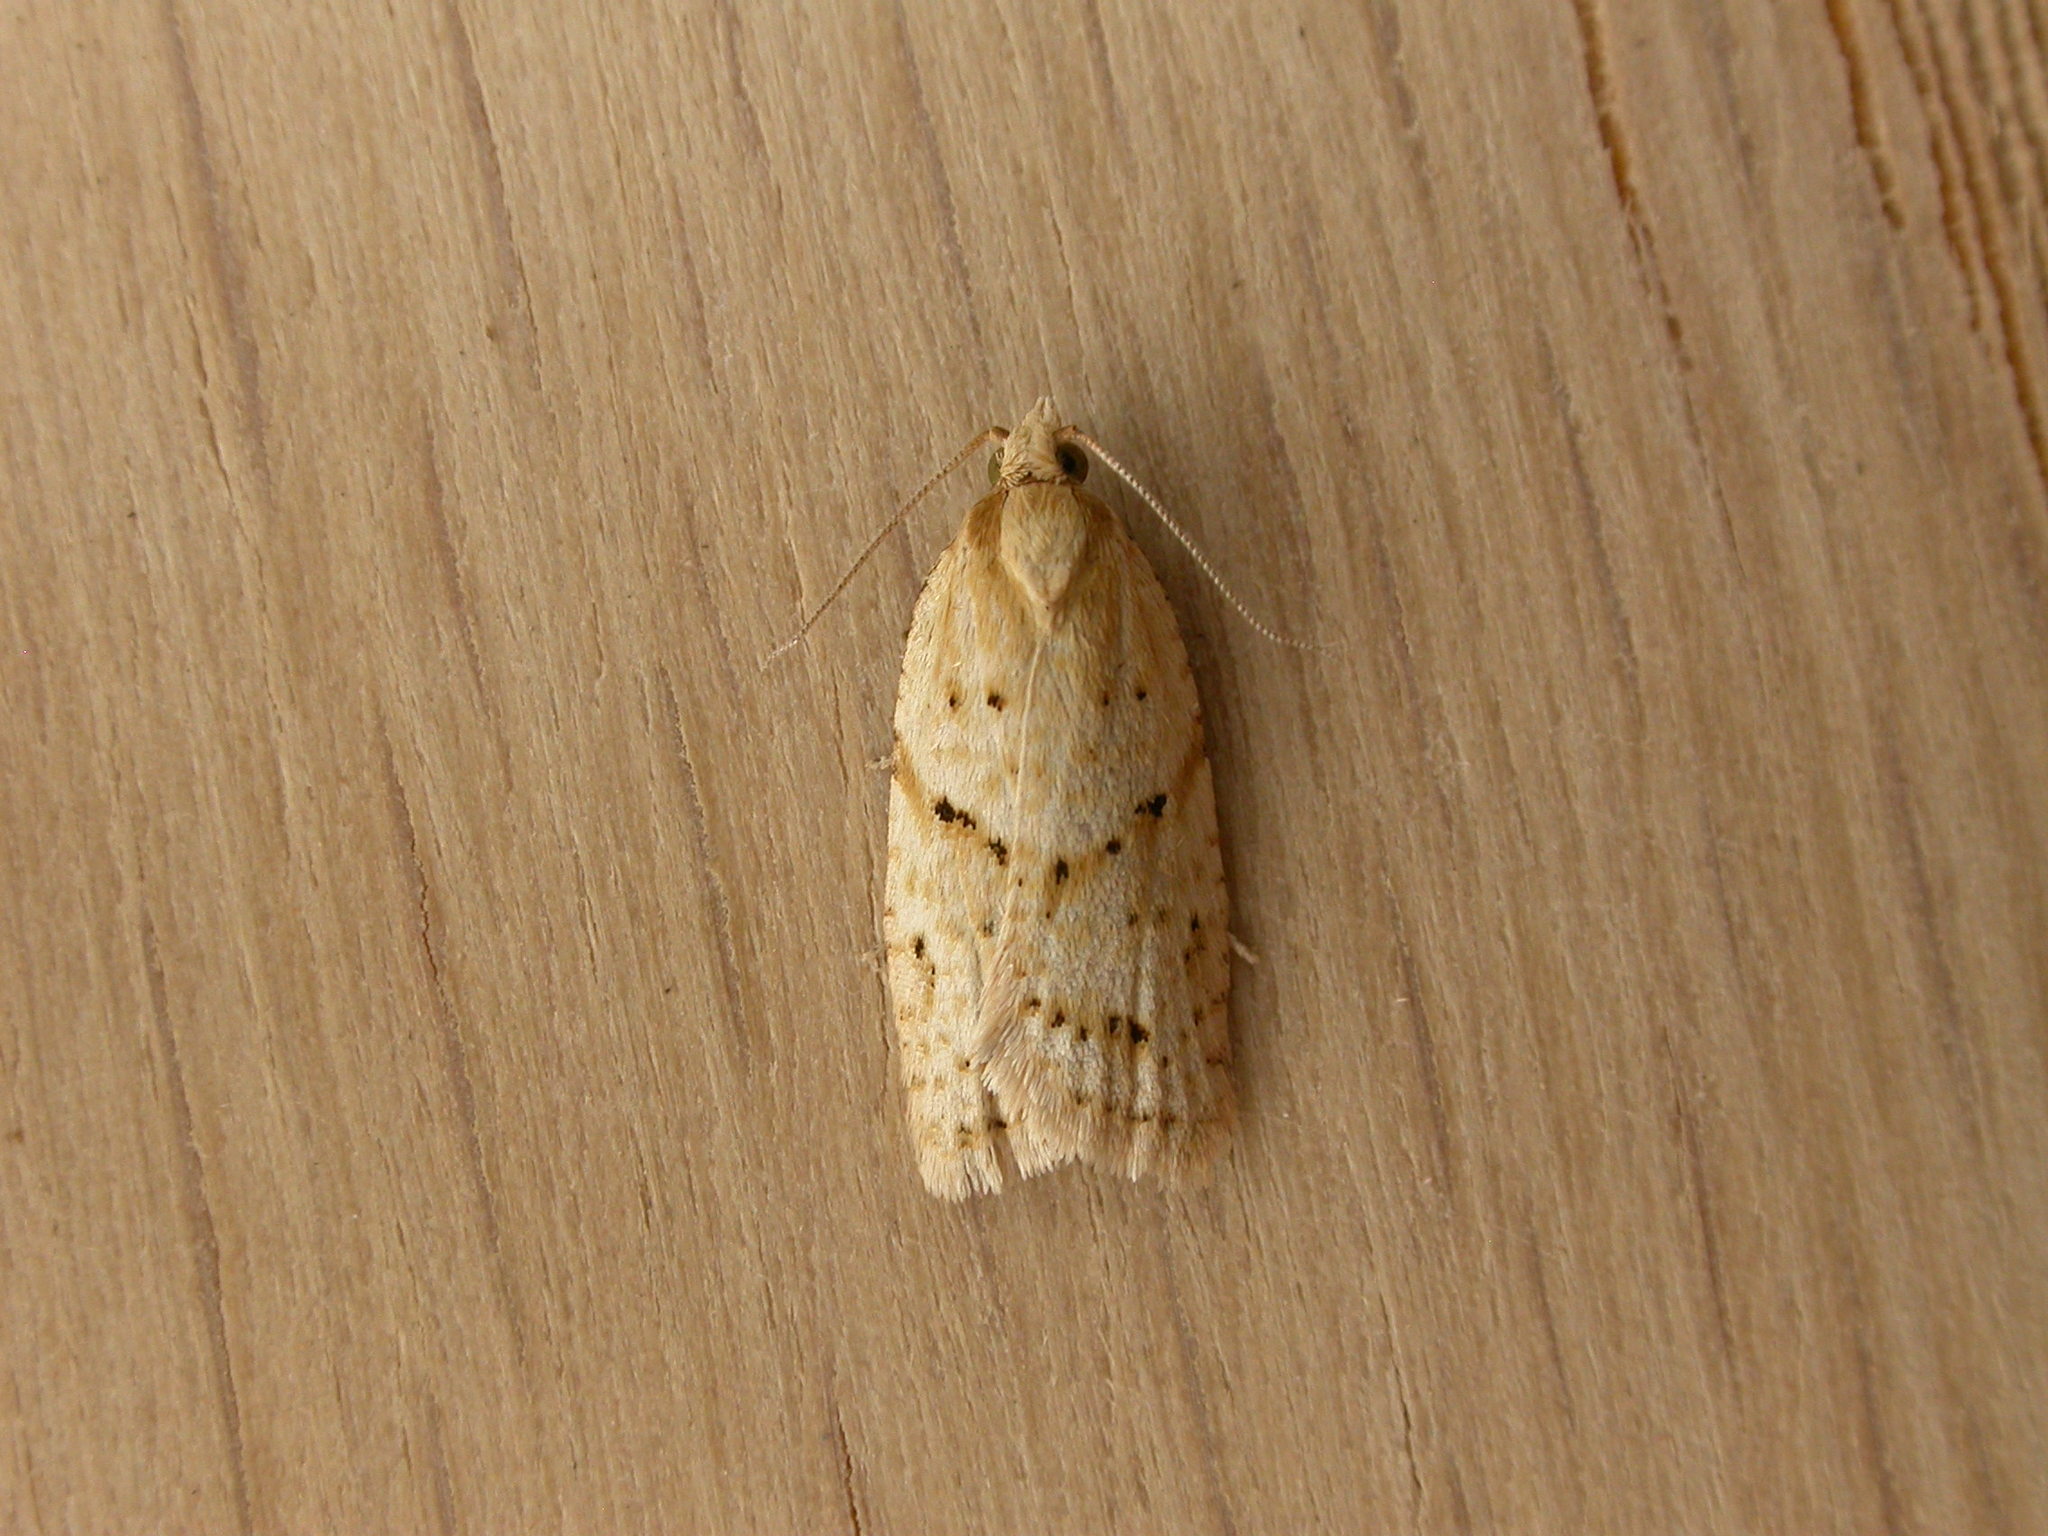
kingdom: Animalia
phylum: Arthropoda
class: Insecta
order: Lepidoptera
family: Tortricidae
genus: Clepsis
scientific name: Clepsis
